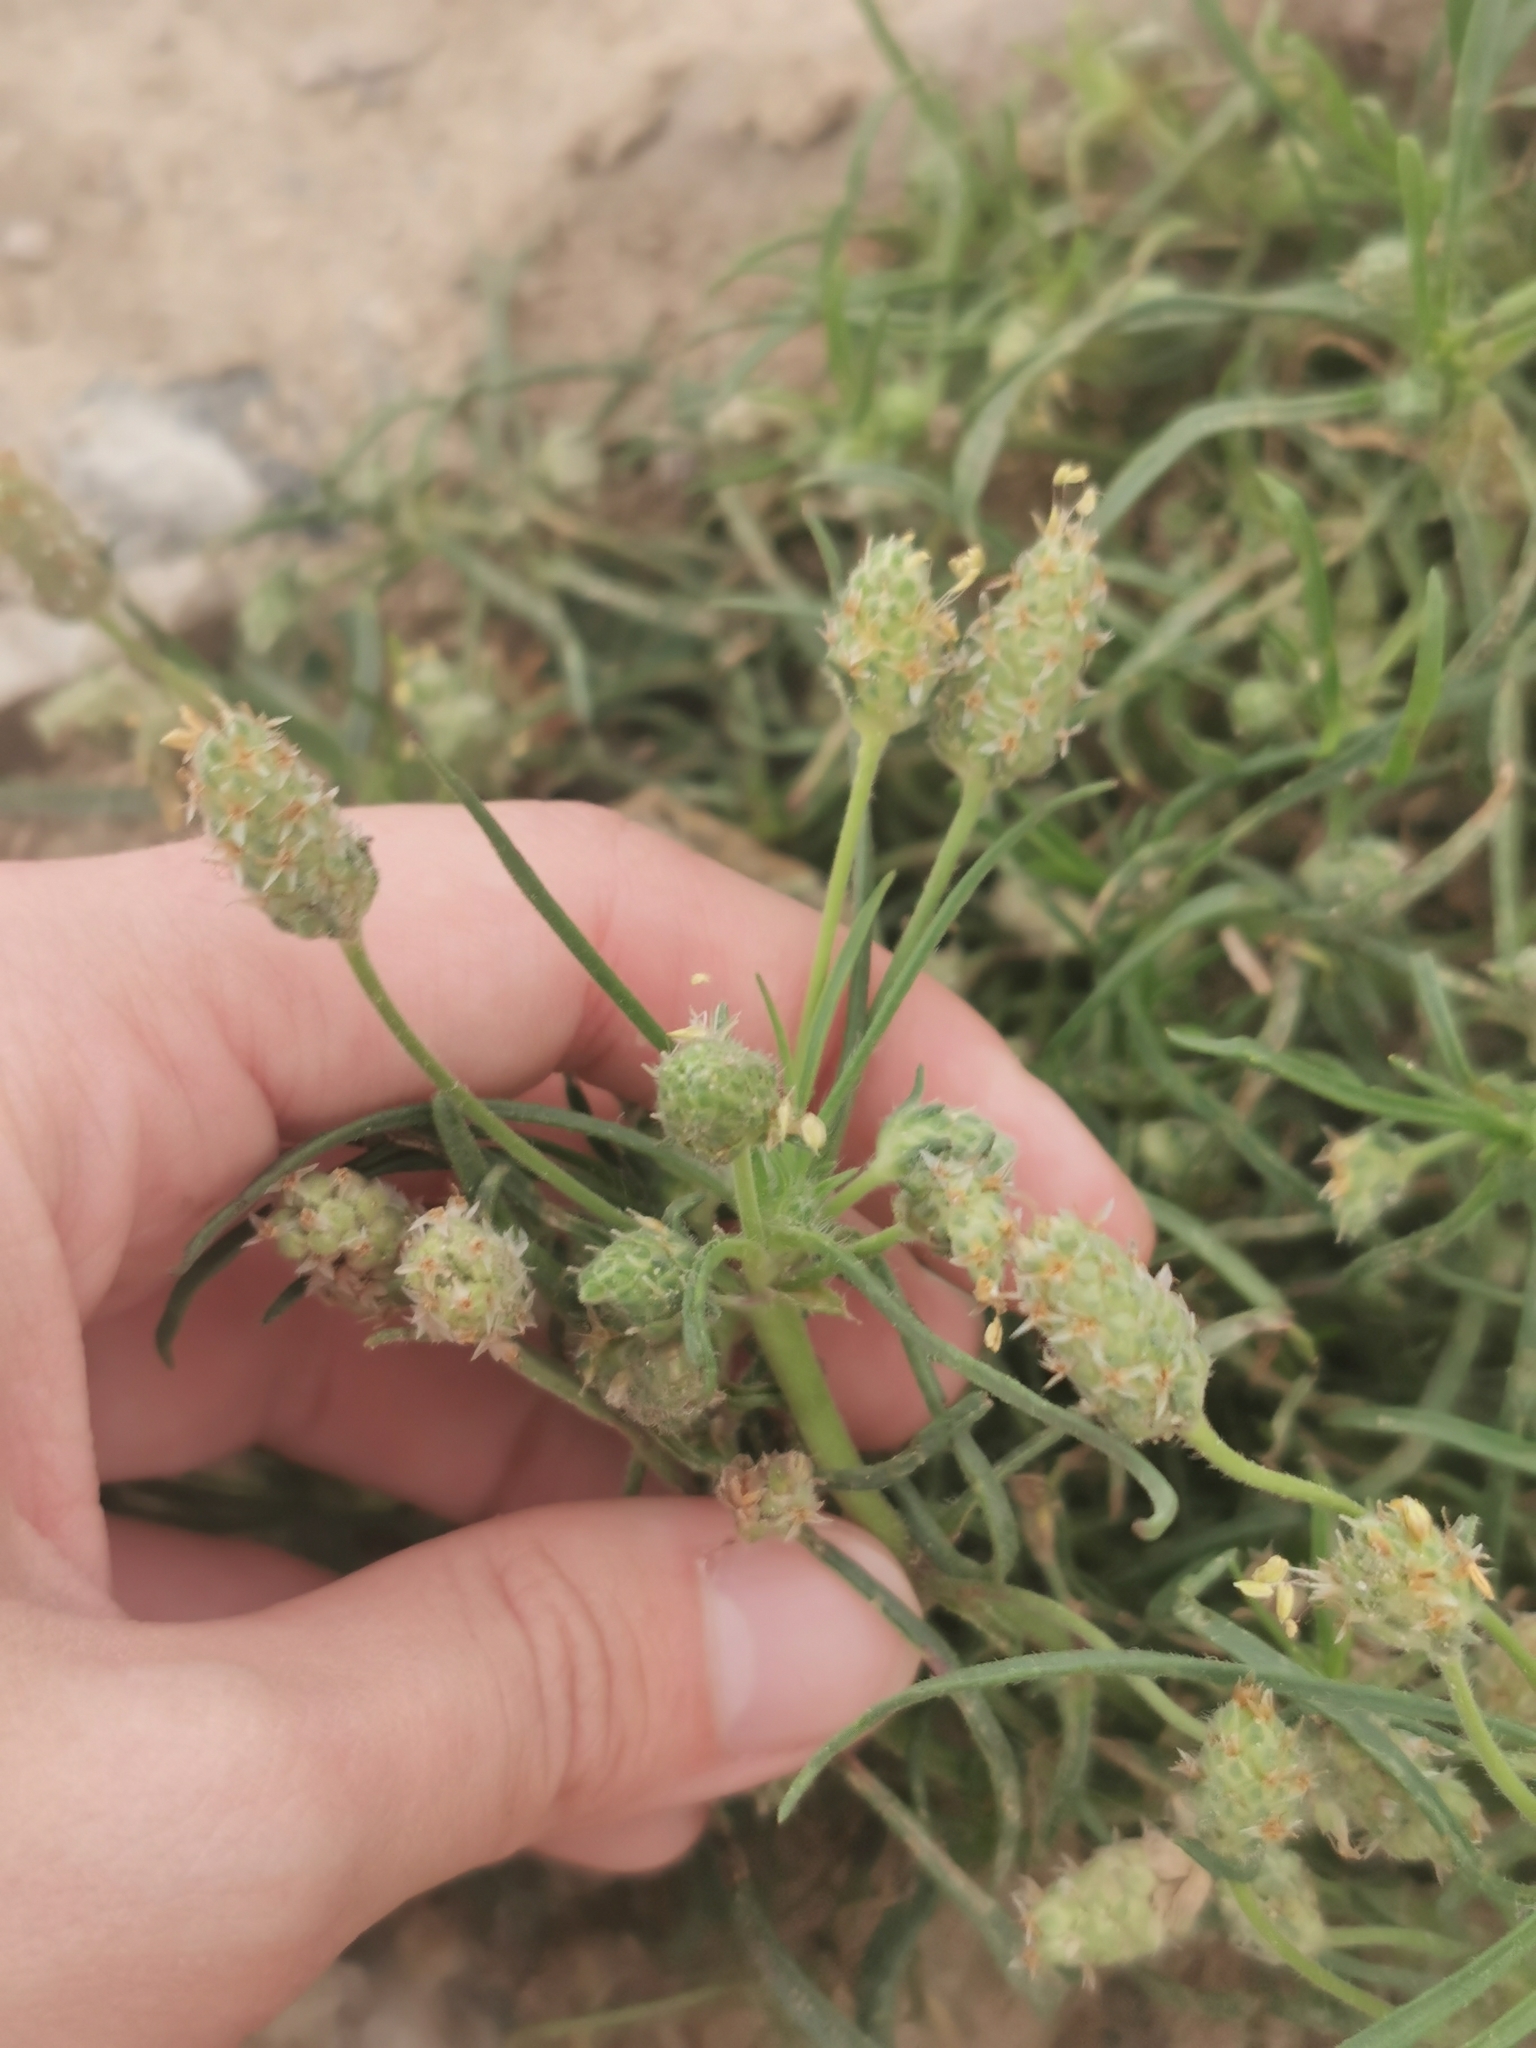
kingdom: Plantae
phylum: Tracheophyta
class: Magnoliopsida
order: Lamiales
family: Plantaginaceae
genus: Plantago
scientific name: Plantago arenaria
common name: Branched plantain
